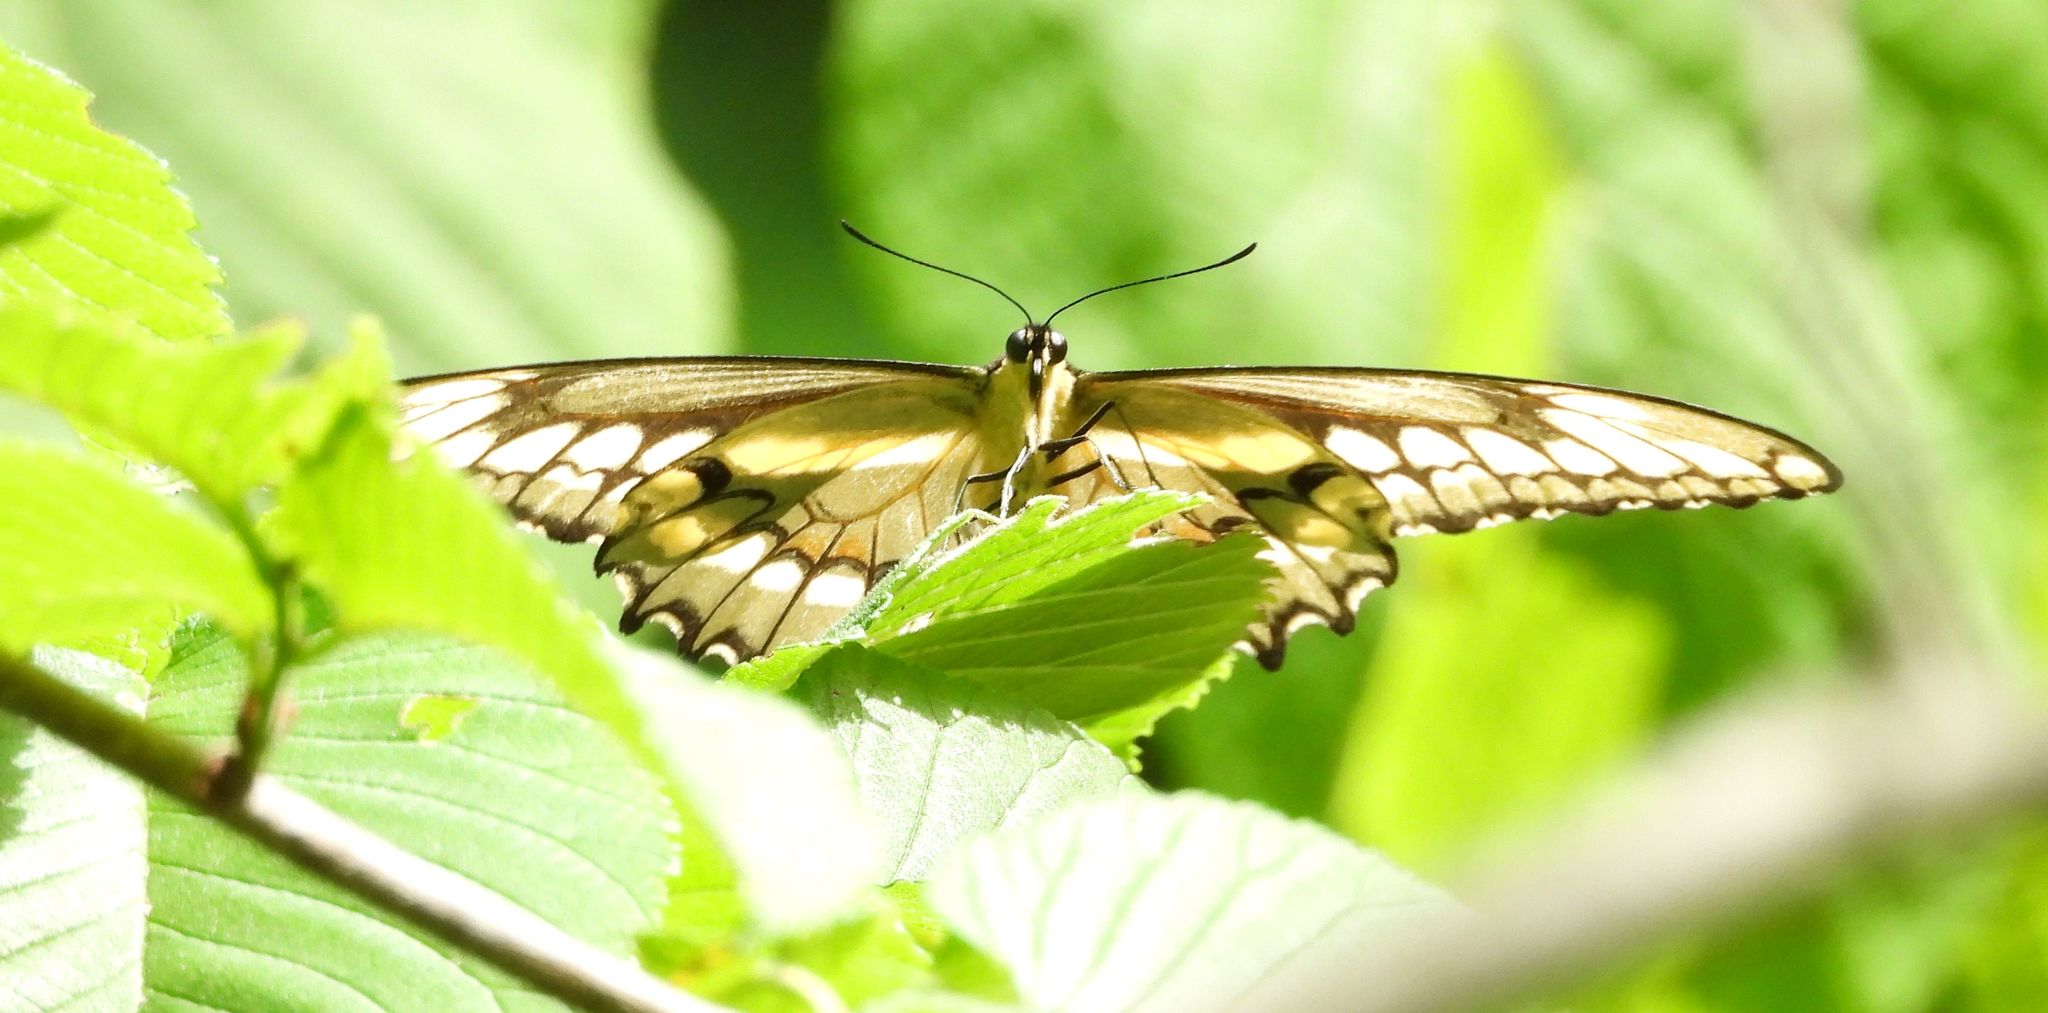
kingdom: Animalia
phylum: Arthropoda
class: Insecta
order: Lepidoptera
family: Papilionidae
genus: Papilio
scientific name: Papilio cresphontes
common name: Giant swallowtail
